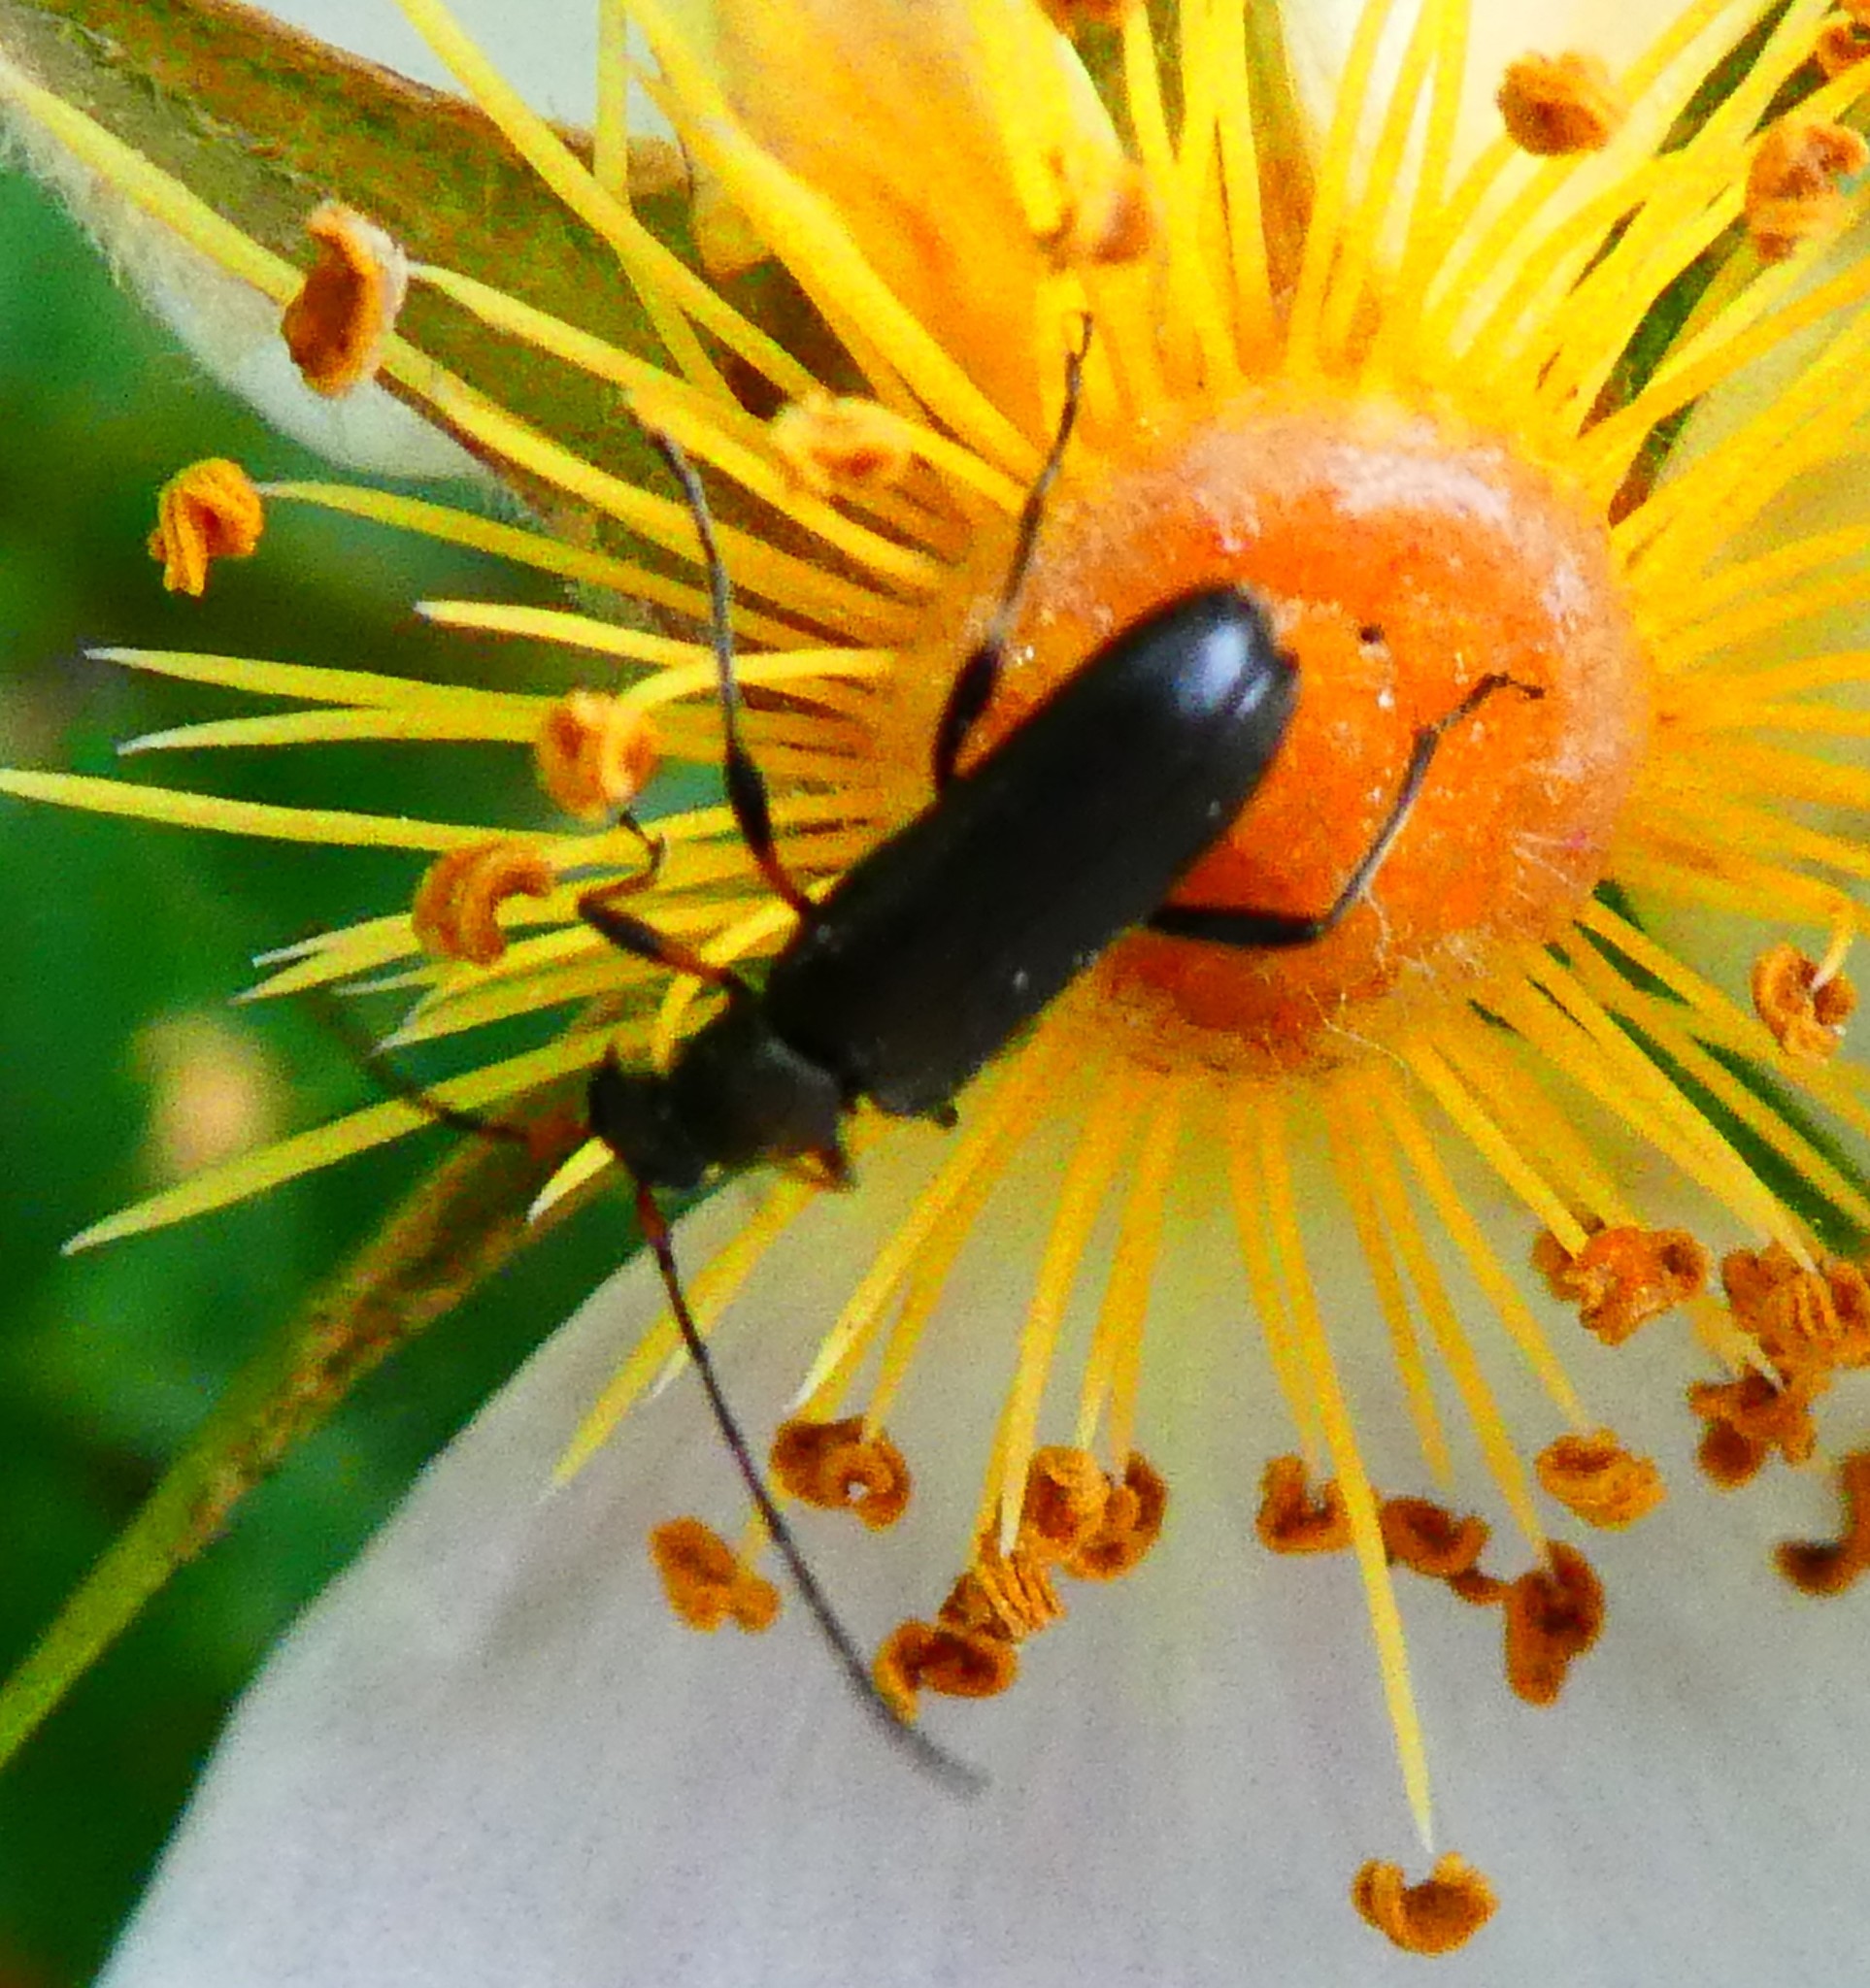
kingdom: Animalia
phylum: Arthropoda
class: Insecta
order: Coleoptera
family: Cerambycidae
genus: Grammoptera
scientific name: Grammoptera ruficornis
